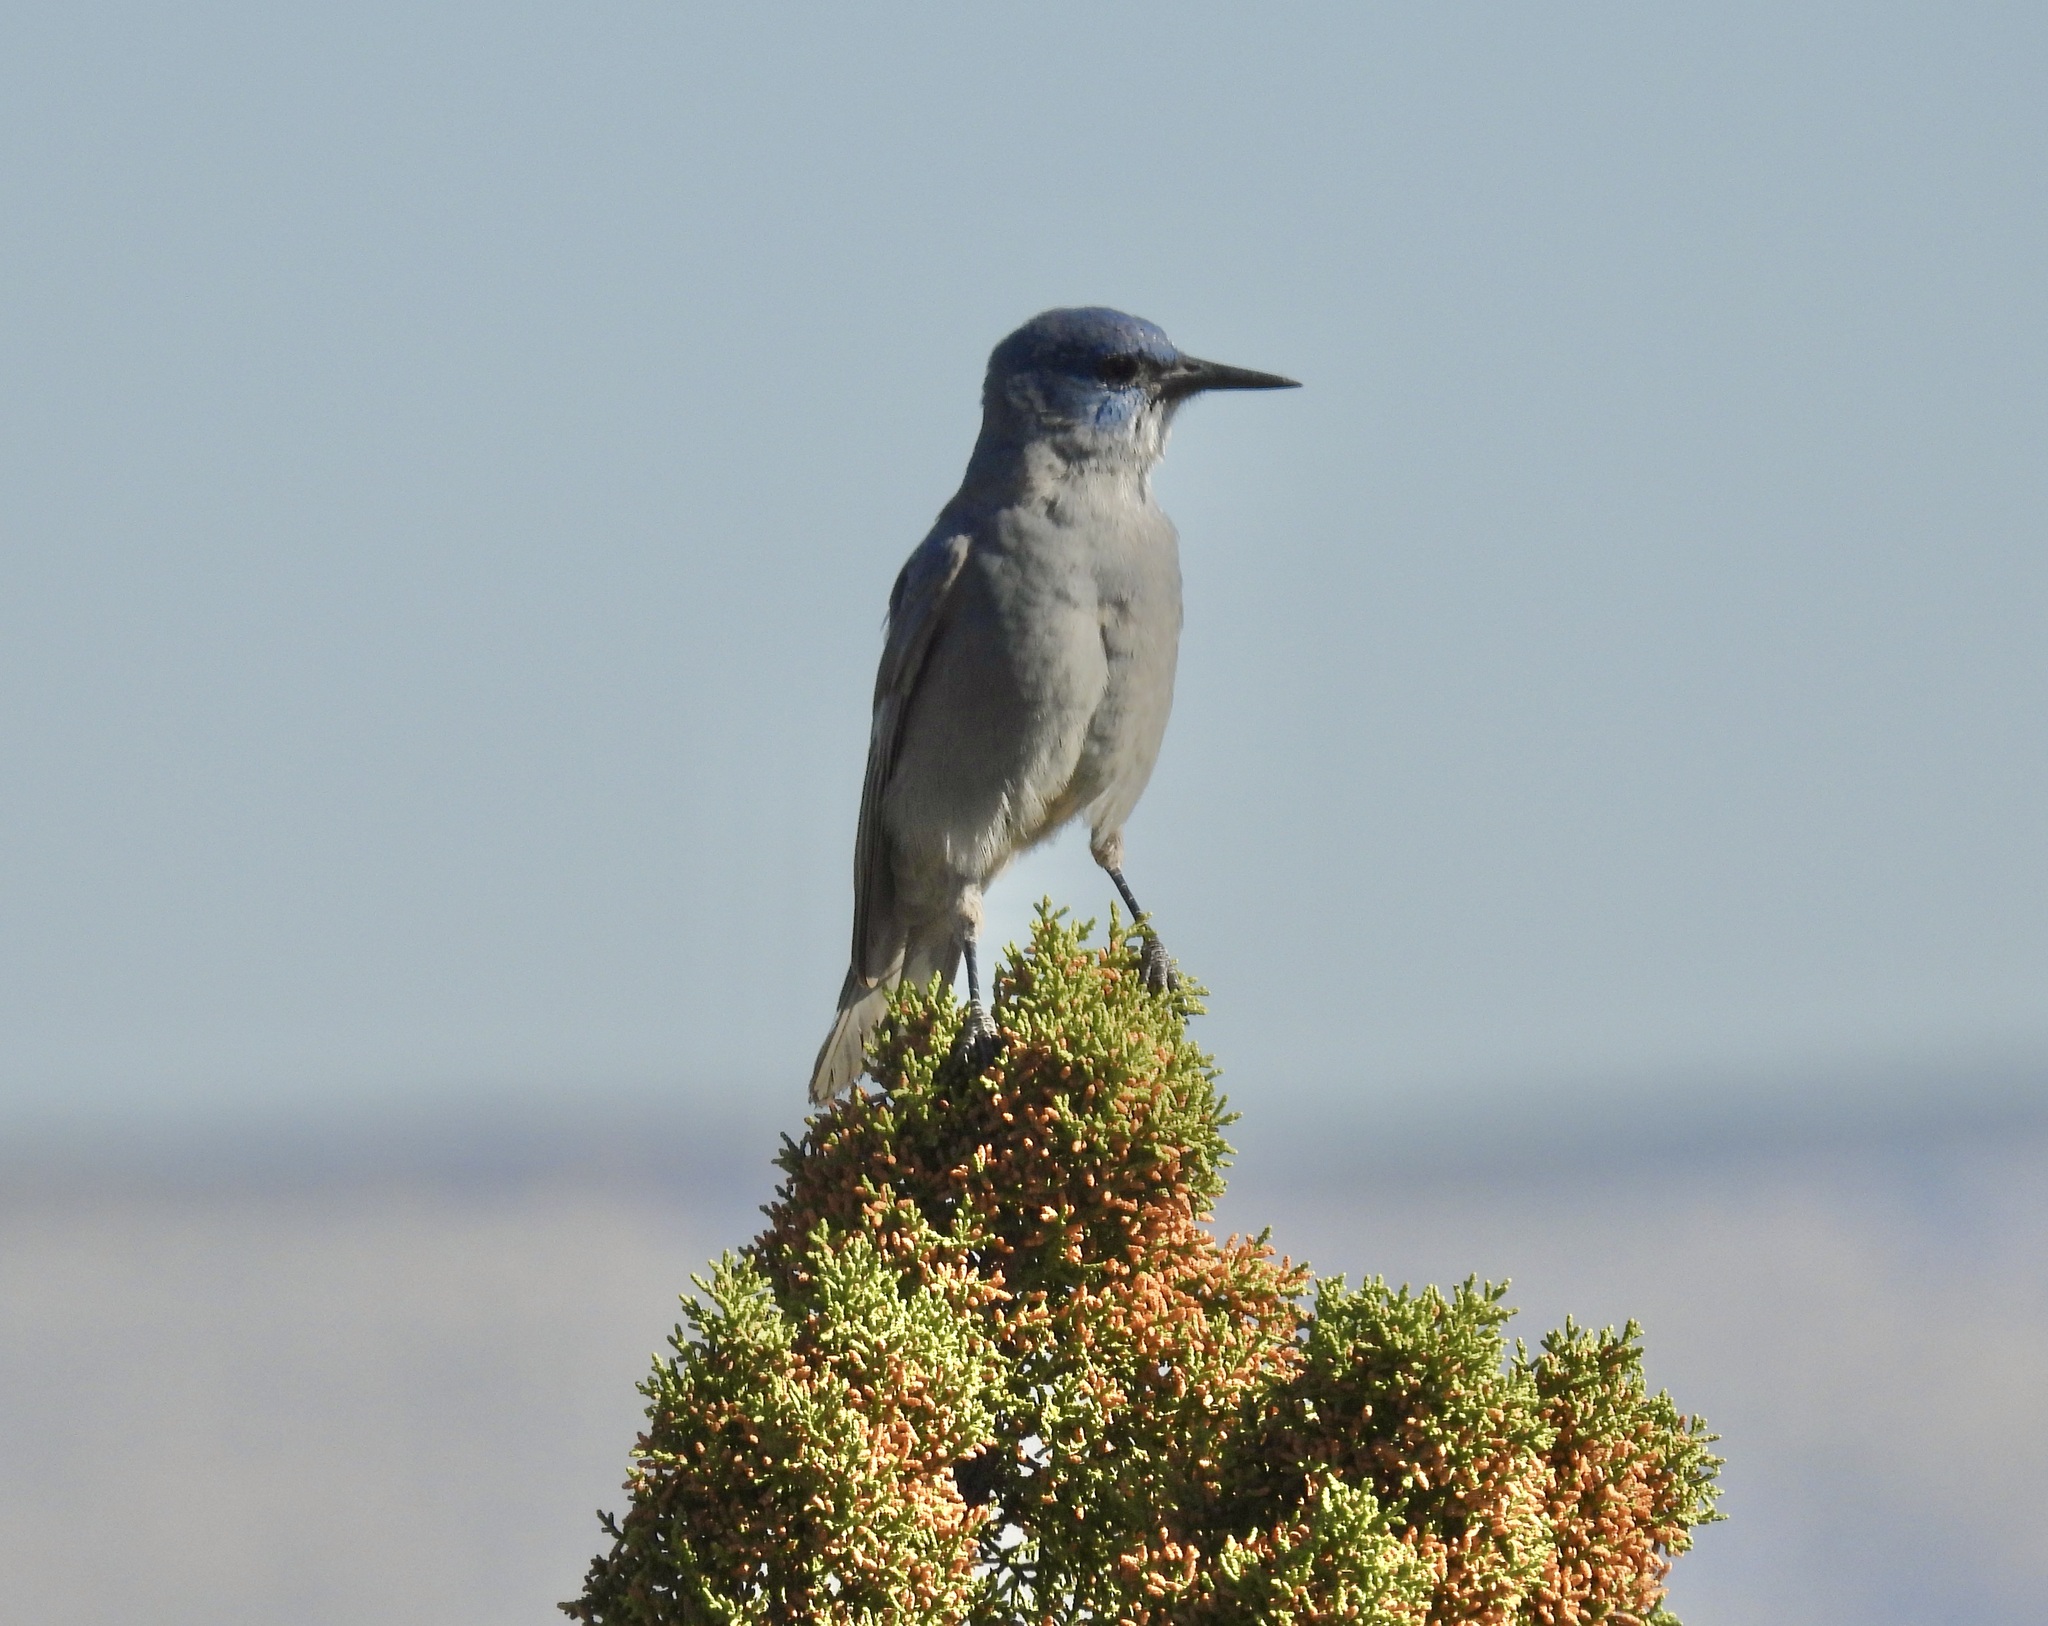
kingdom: Animalia
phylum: Chordata
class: Aves
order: Passeriformes
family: Corvidae
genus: Gymnorhinus
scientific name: Gymnorhinus cyanocephalus
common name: Pinyon jay
